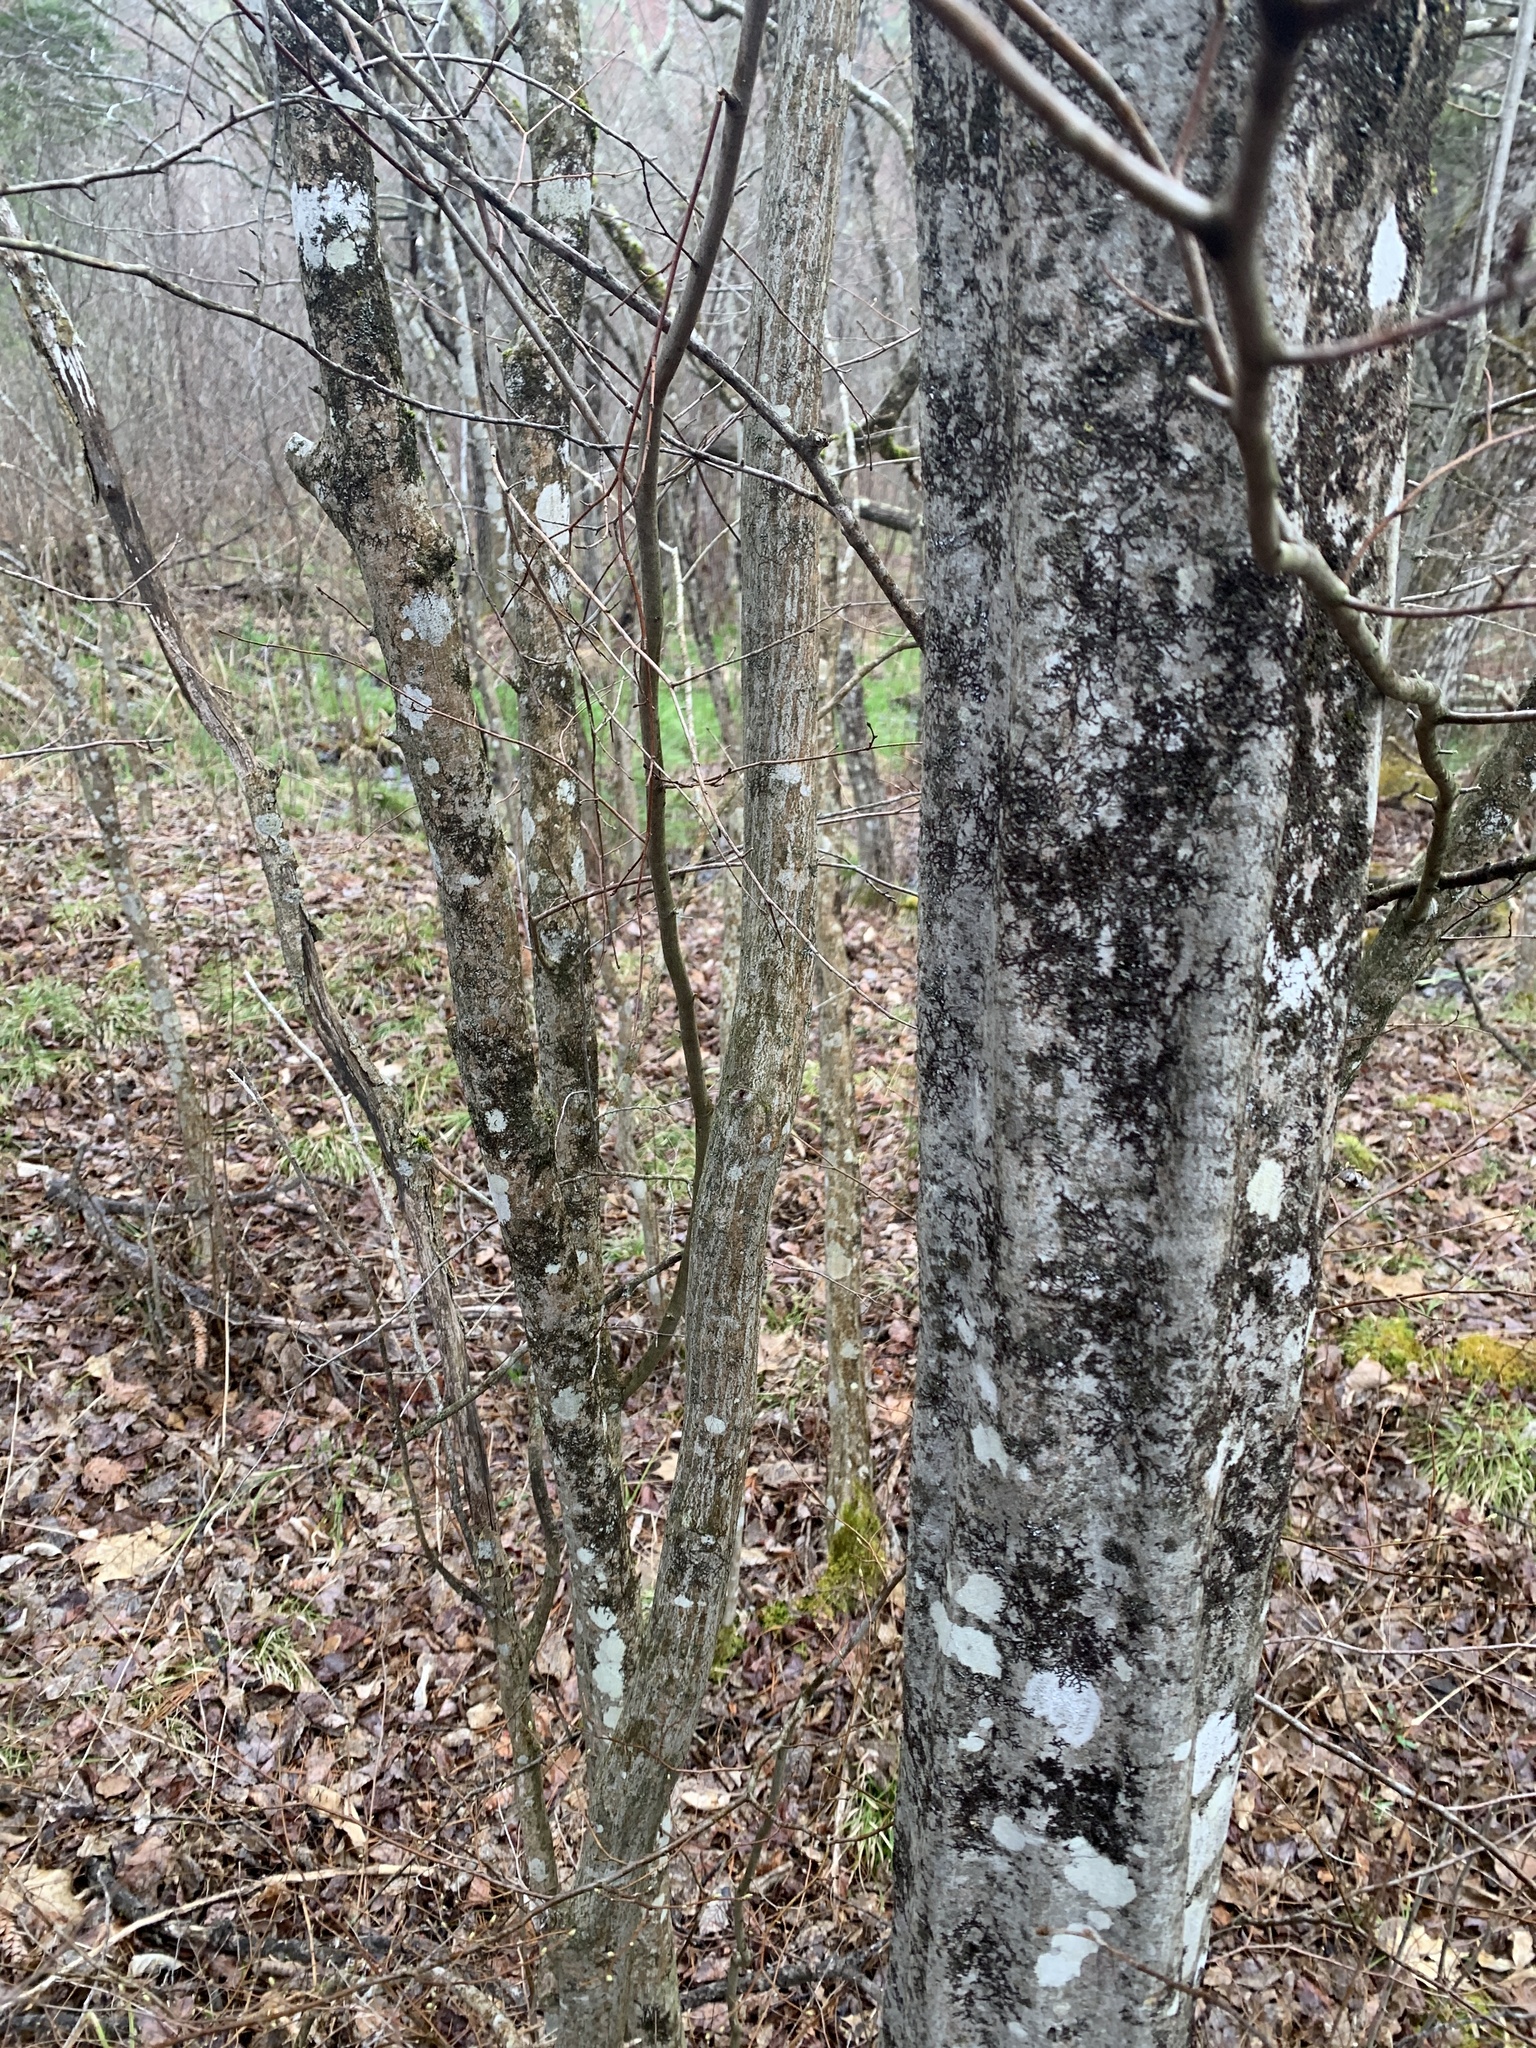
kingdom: Plantae
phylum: Tracheophyta
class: Magnoliopsida
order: Fagales
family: Betulaceae
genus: Carpinus
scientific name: Carpinus caroliniana
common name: American hornbeam
